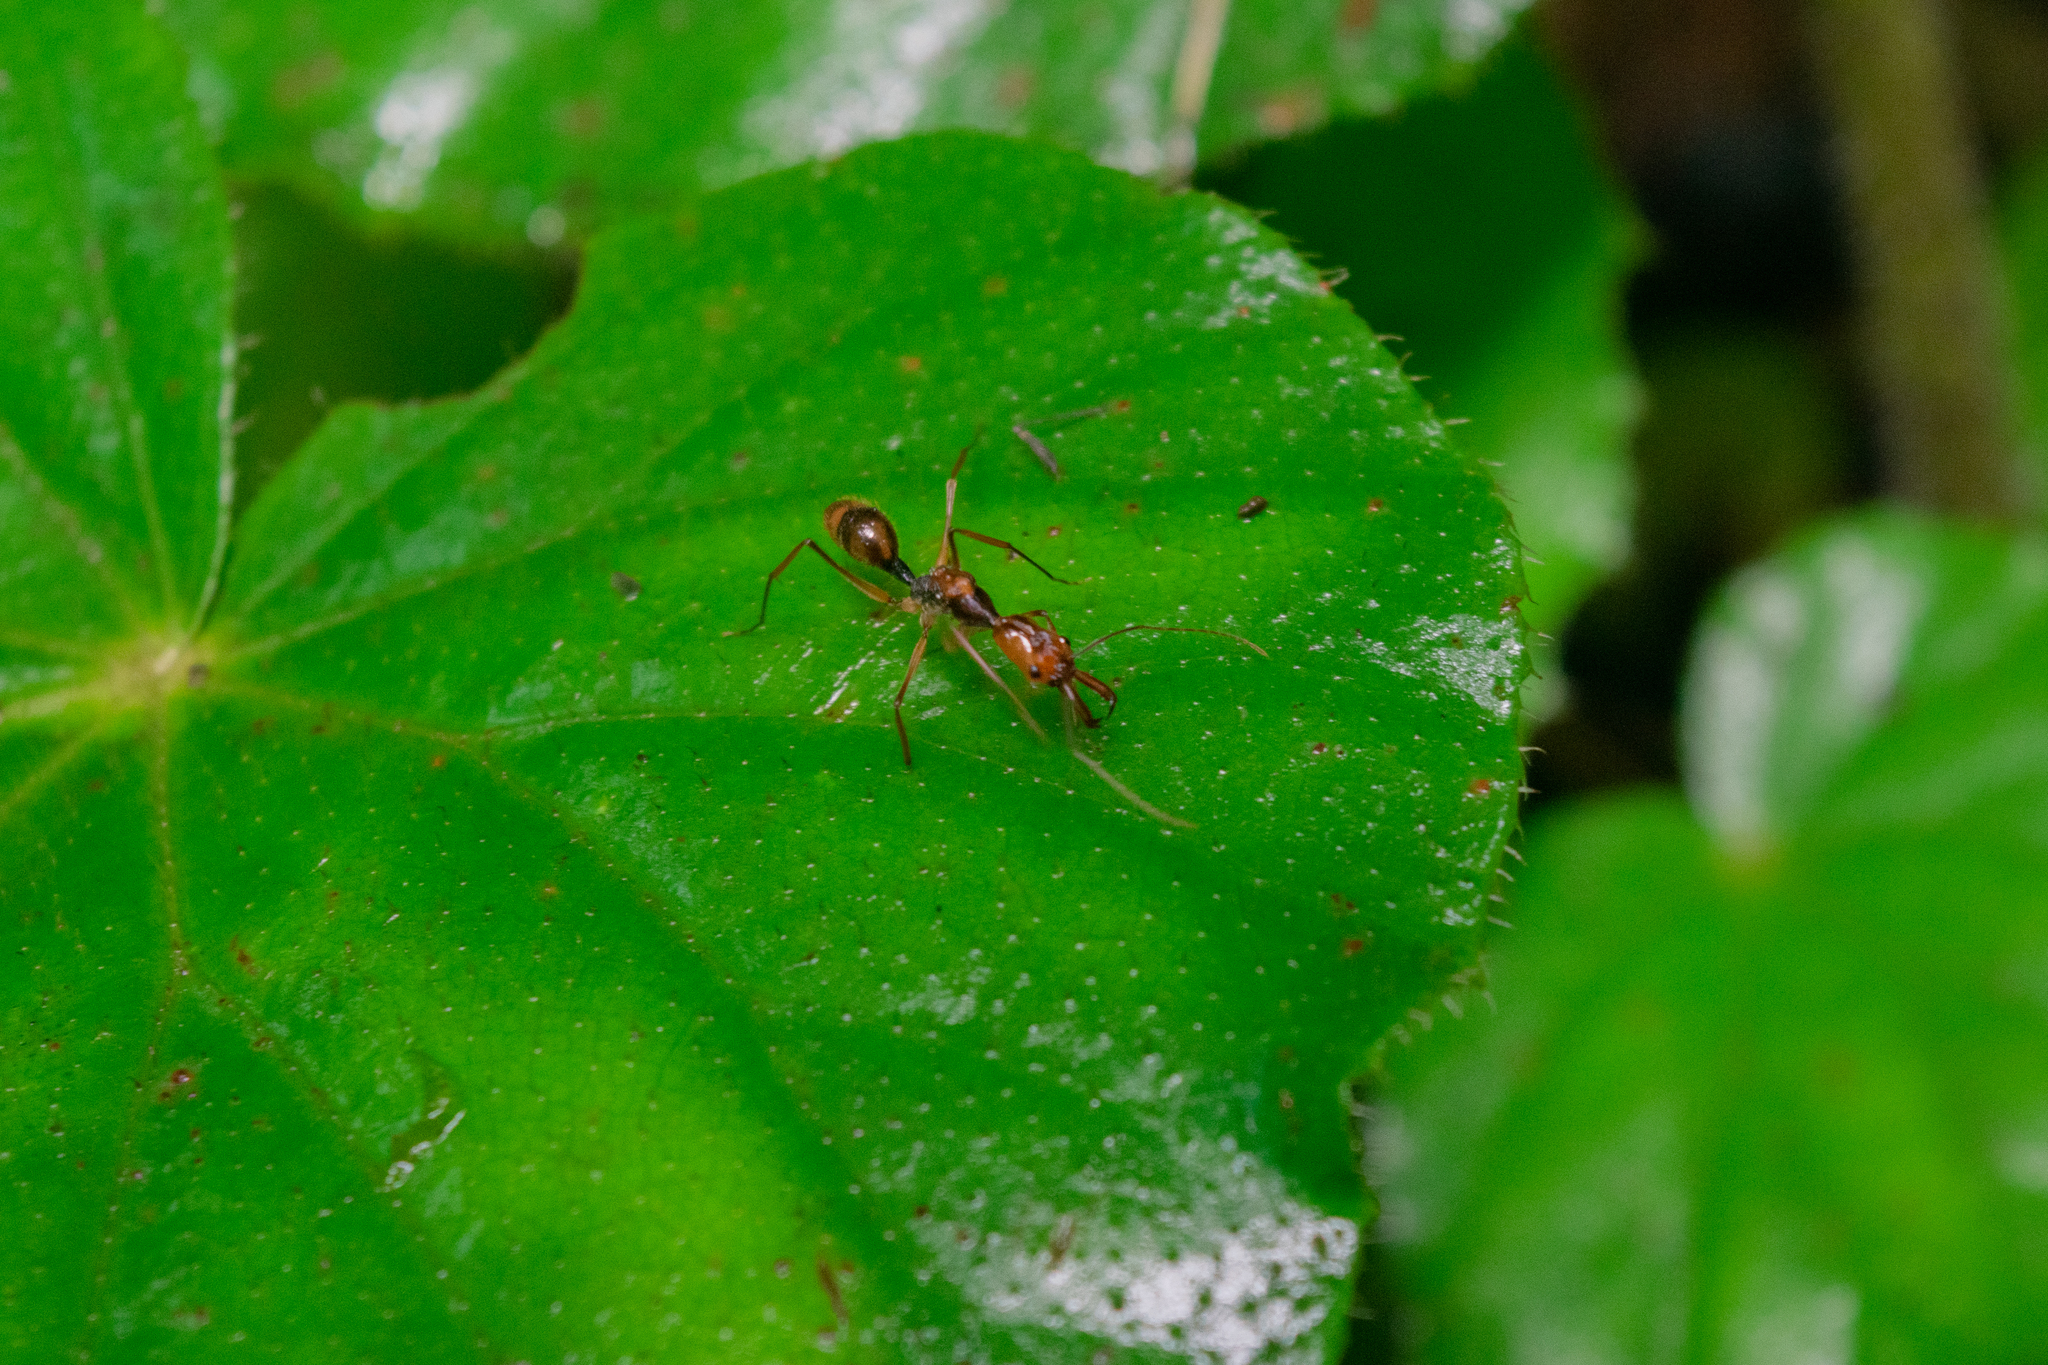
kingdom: Animalia
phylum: Arthropoda
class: Insecta
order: Hymenoptera
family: Formicidae
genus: Odontomachus
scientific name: Odontomachus hastatus
